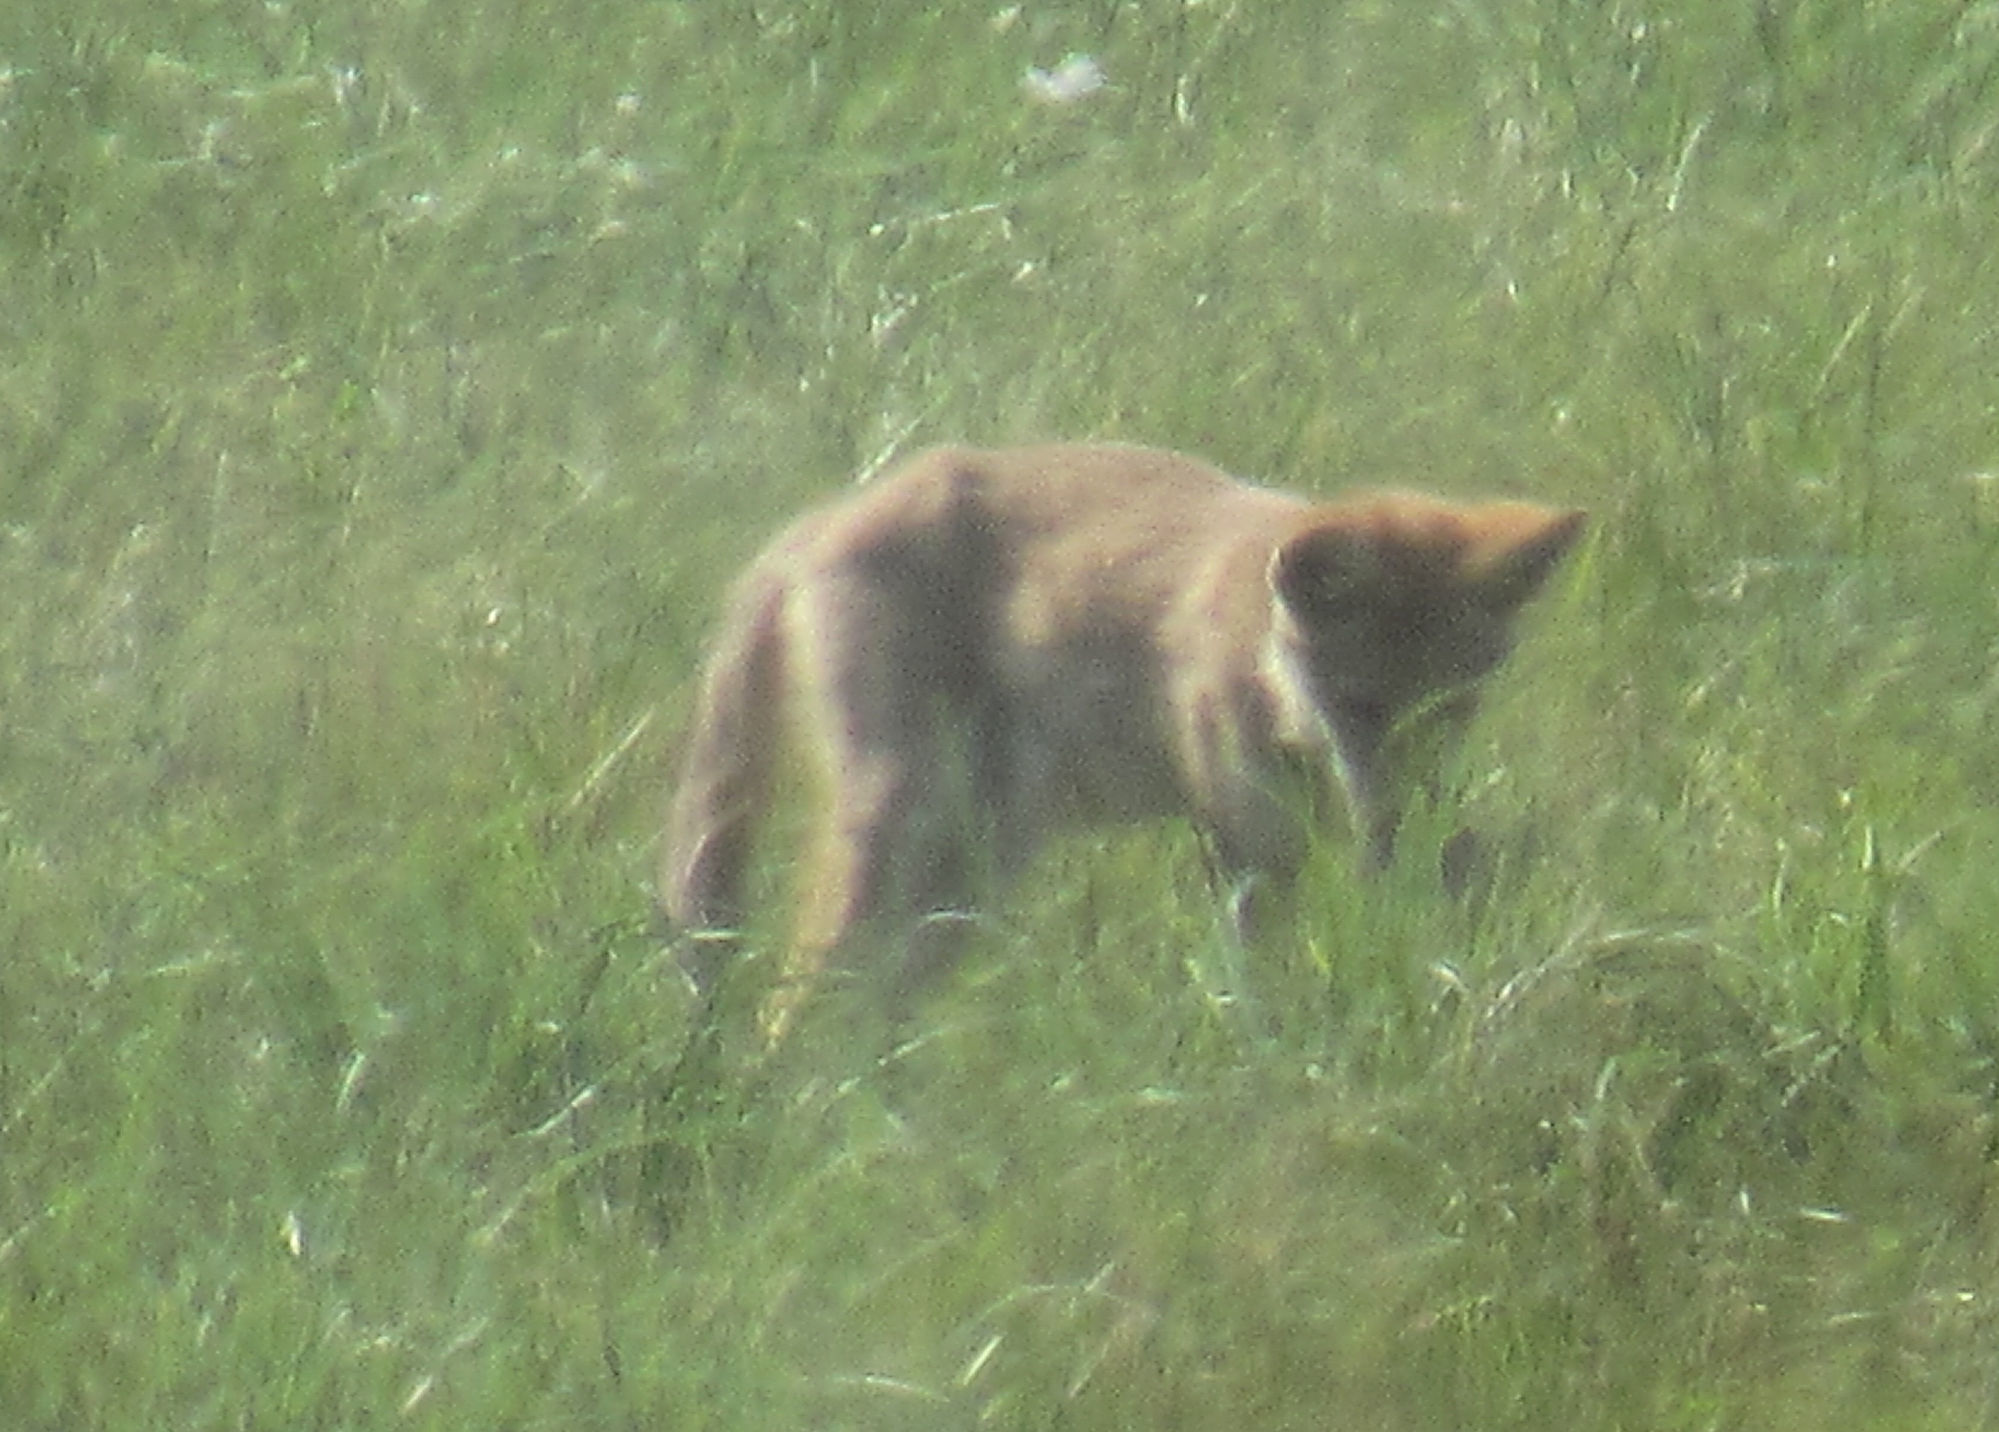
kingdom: Animalia
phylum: Chordata
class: Mammalia
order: Carnivora
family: Canidae
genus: Canis
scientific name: Canis latrans
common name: Coyote
